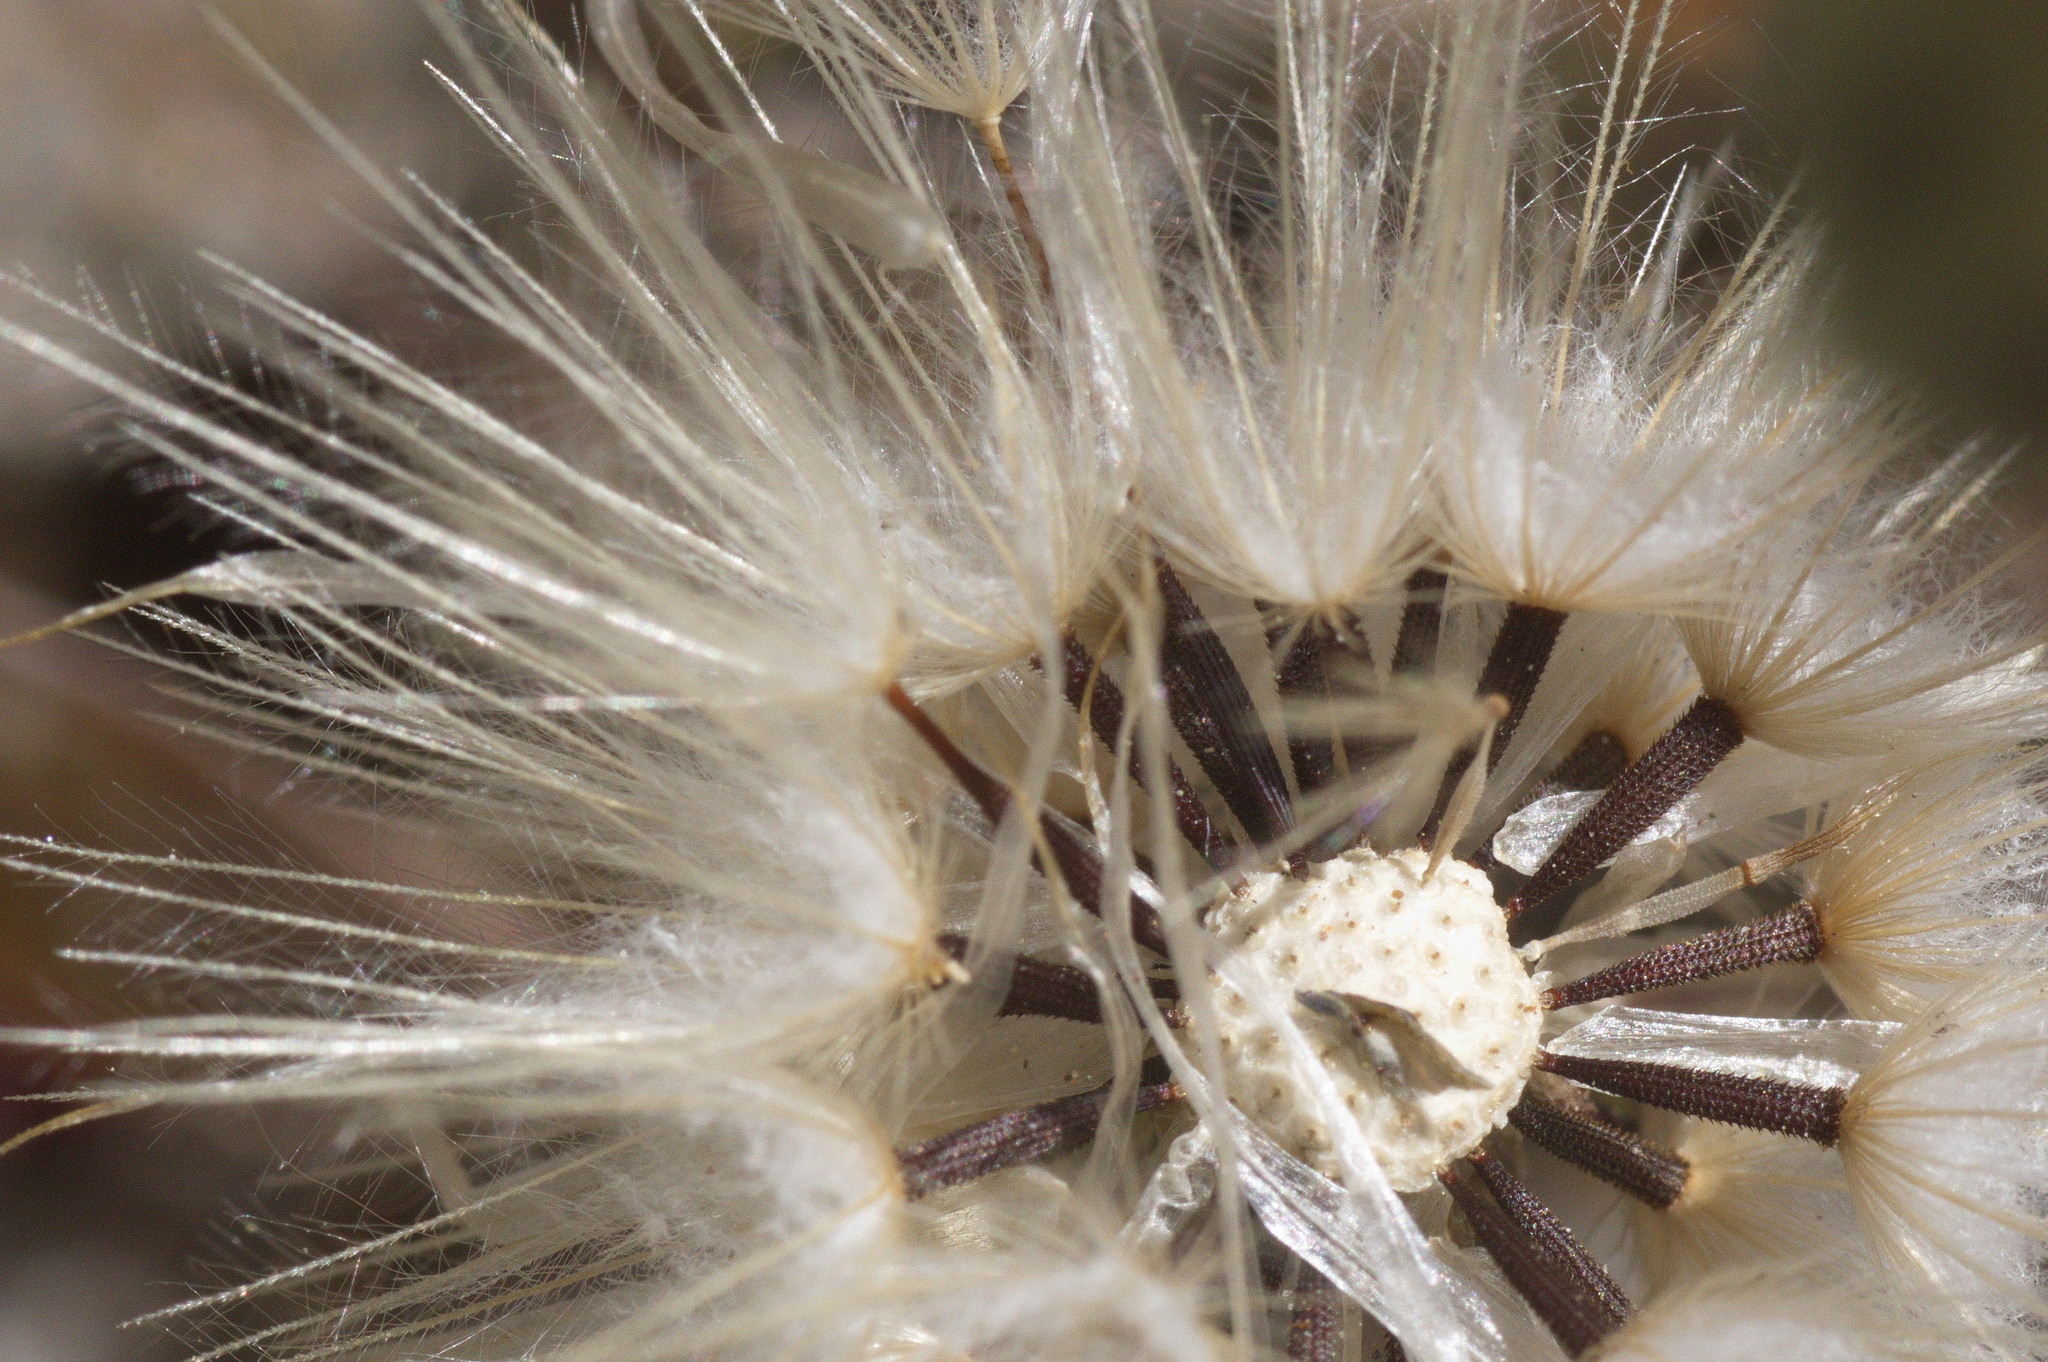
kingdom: Plantae
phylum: Tracheophyta
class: Magnoliopsida
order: Asterales
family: Asteraceae
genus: Hypochaeris
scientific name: Hypochaeris glabra
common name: Smooth catsear
